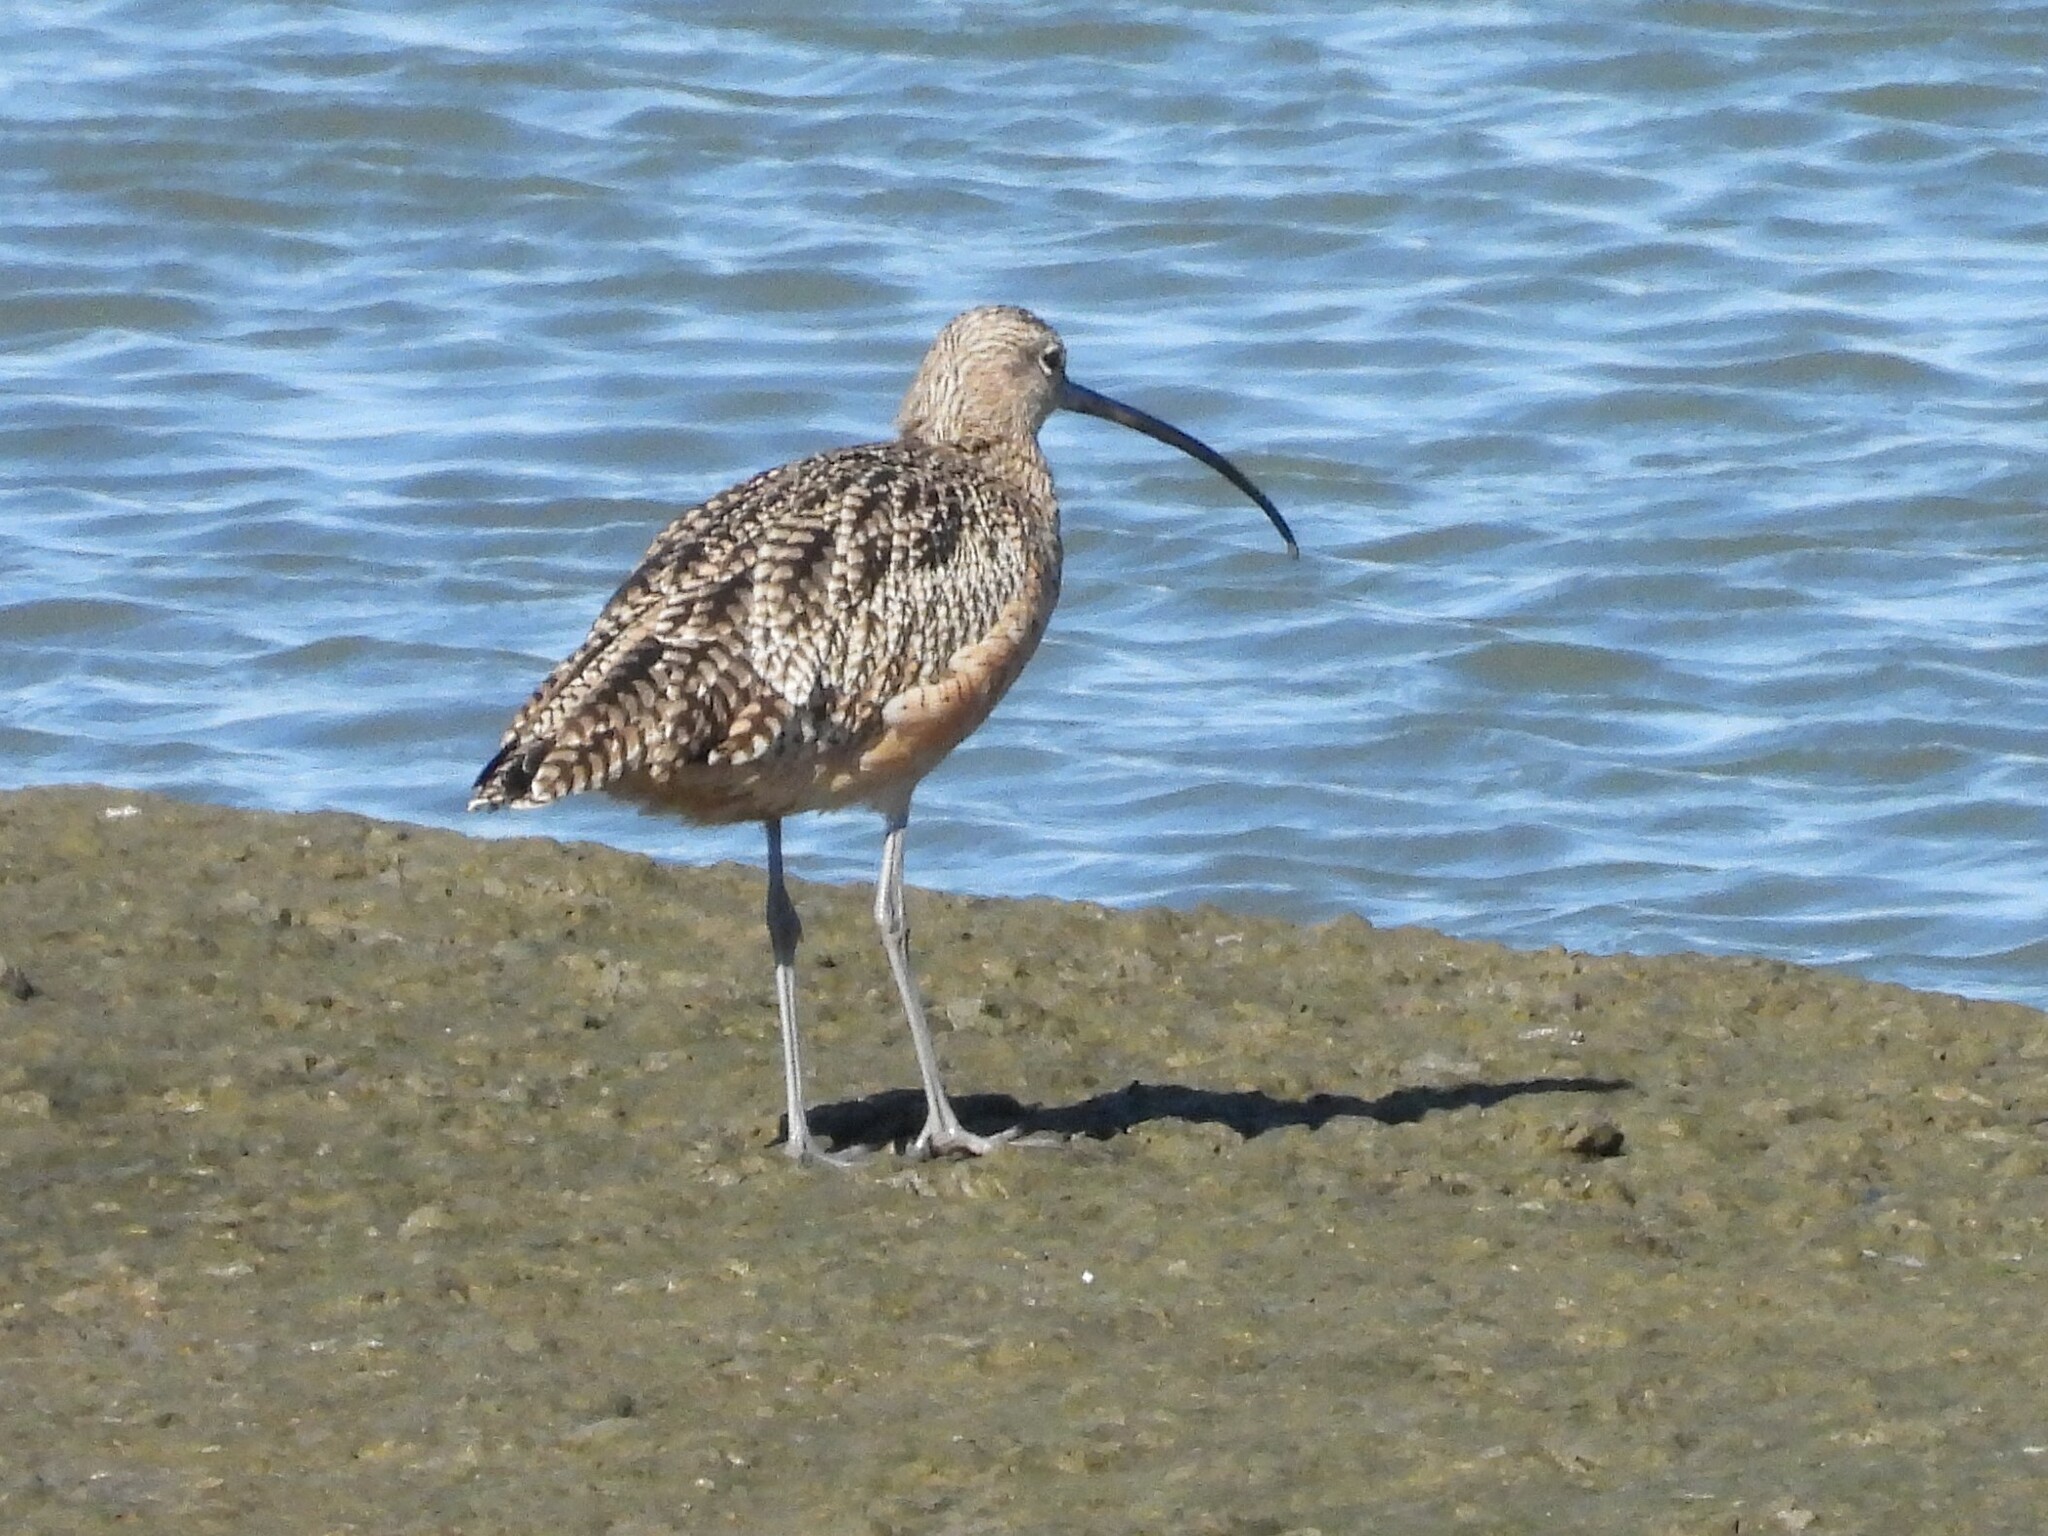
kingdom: Animalia
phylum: Chordata
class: Aves
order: Charadriiformes
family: Scolopacidae
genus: Numenius
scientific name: Numenius americanus
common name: Long-billed curlew
